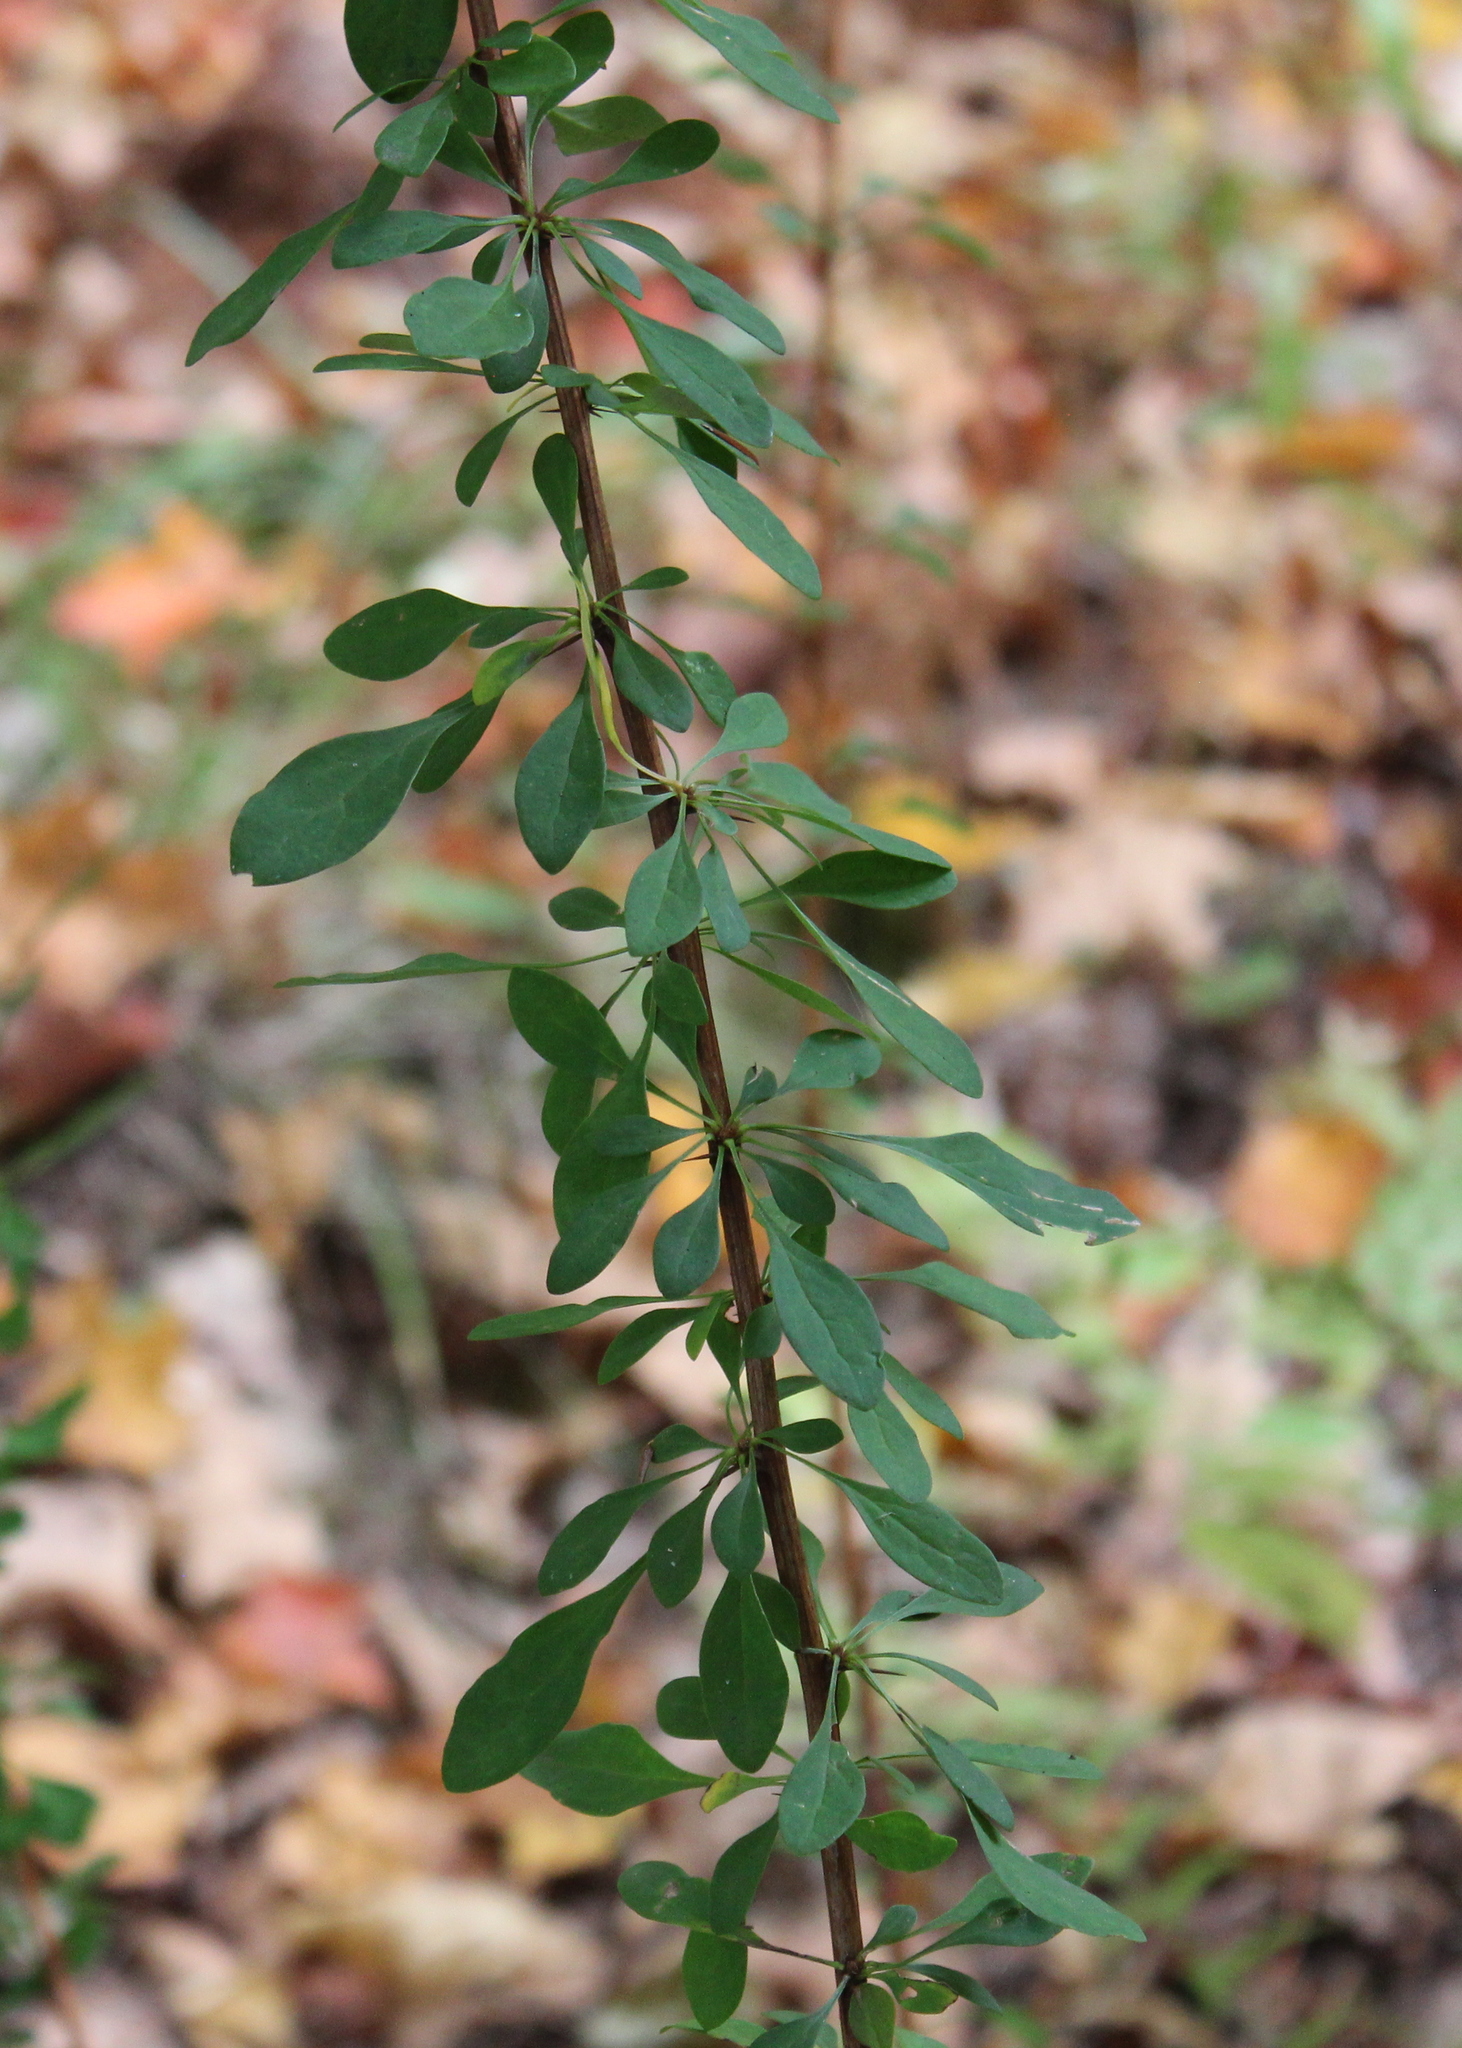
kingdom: Plantae
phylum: Tracheophyta
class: Magnoliopsida
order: Ranunculales
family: Berberidaceae
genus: Berberis
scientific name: Berberis thunbergii
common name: Japanese barberry
